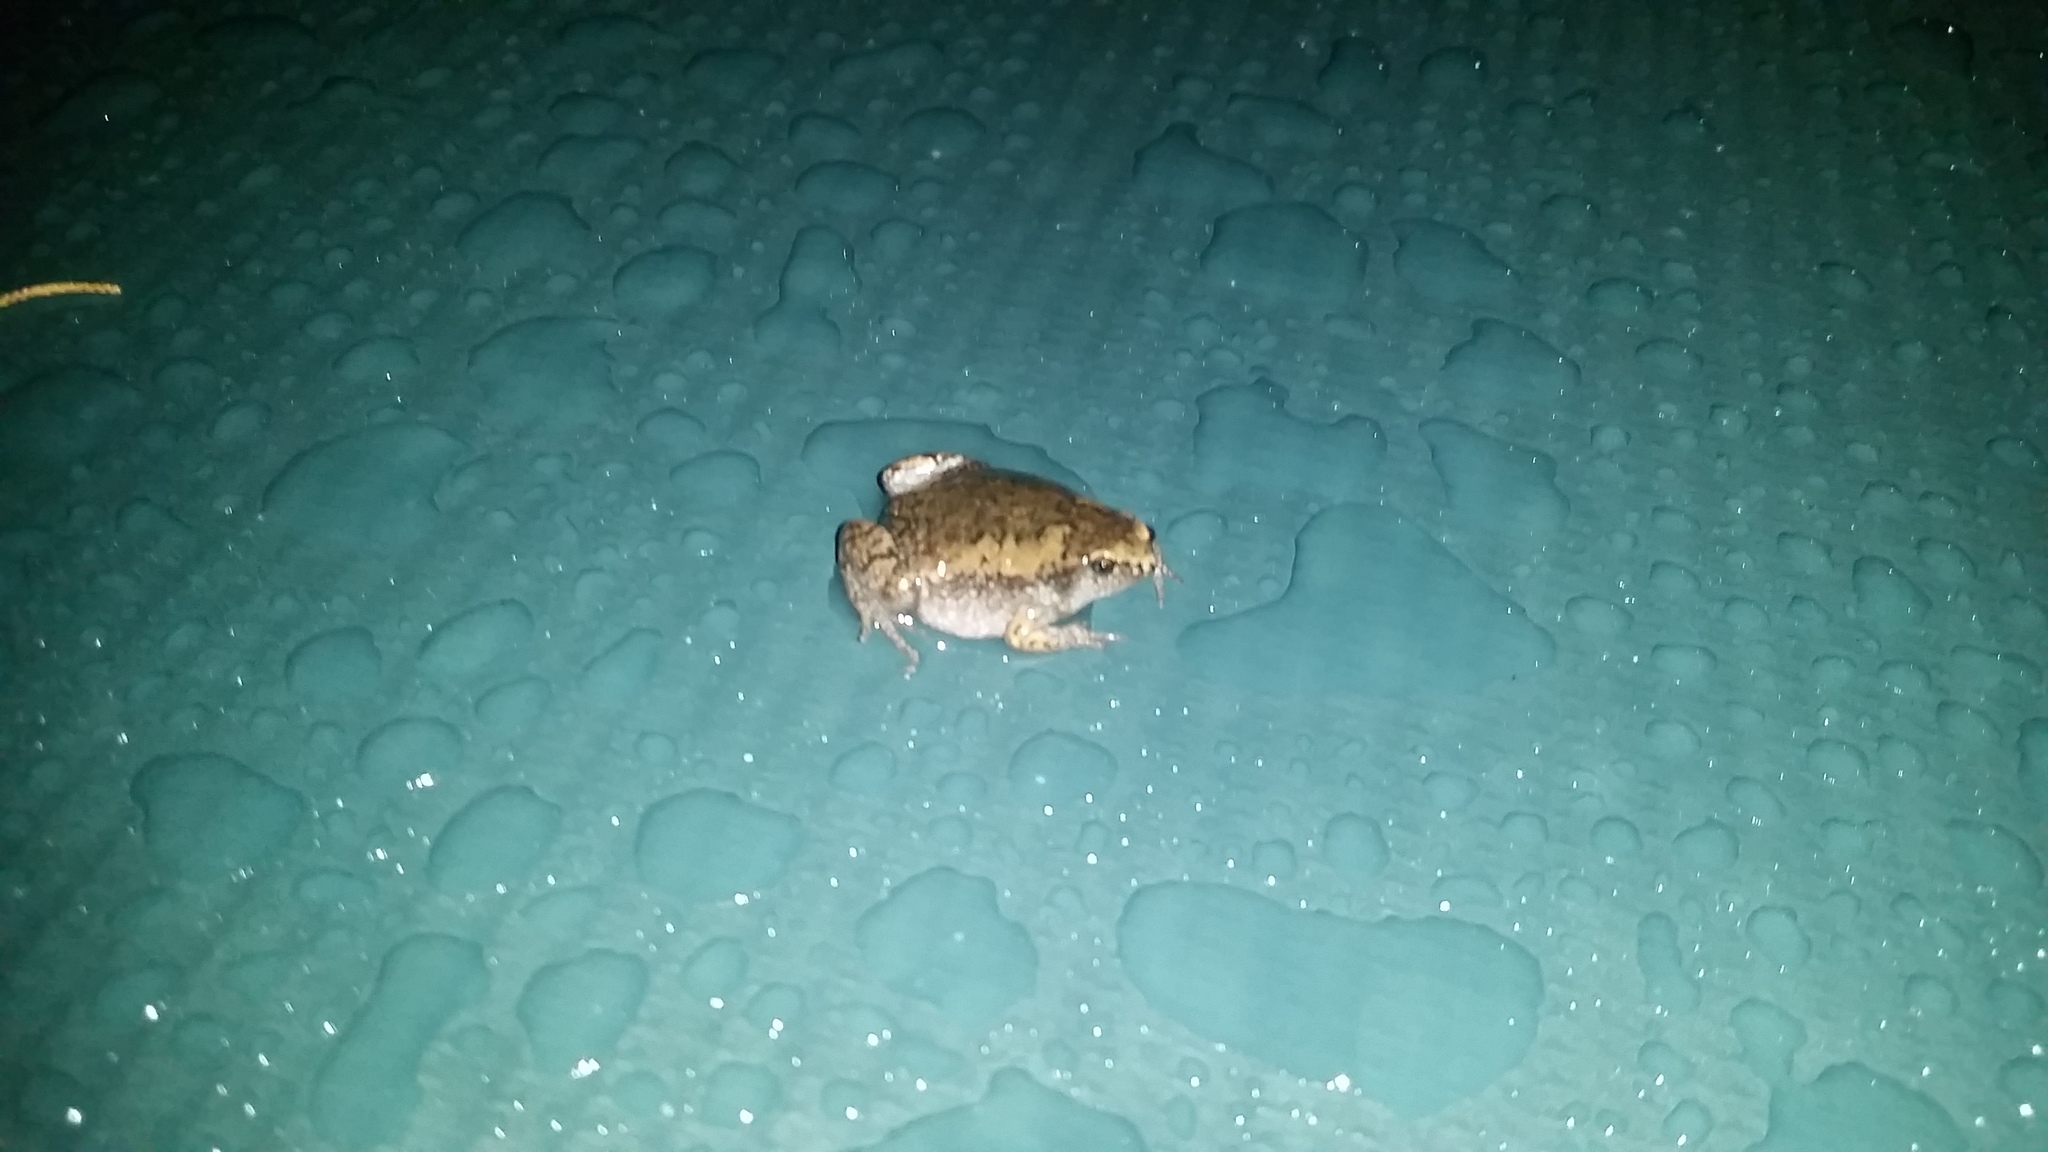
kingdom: Animalia
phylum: Chordata
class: Amphibia
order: Anura
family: Microhylidae
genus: Gastrophryne
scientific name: Gastrophryne carolinensis
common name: Eastern narrowmouth toad
